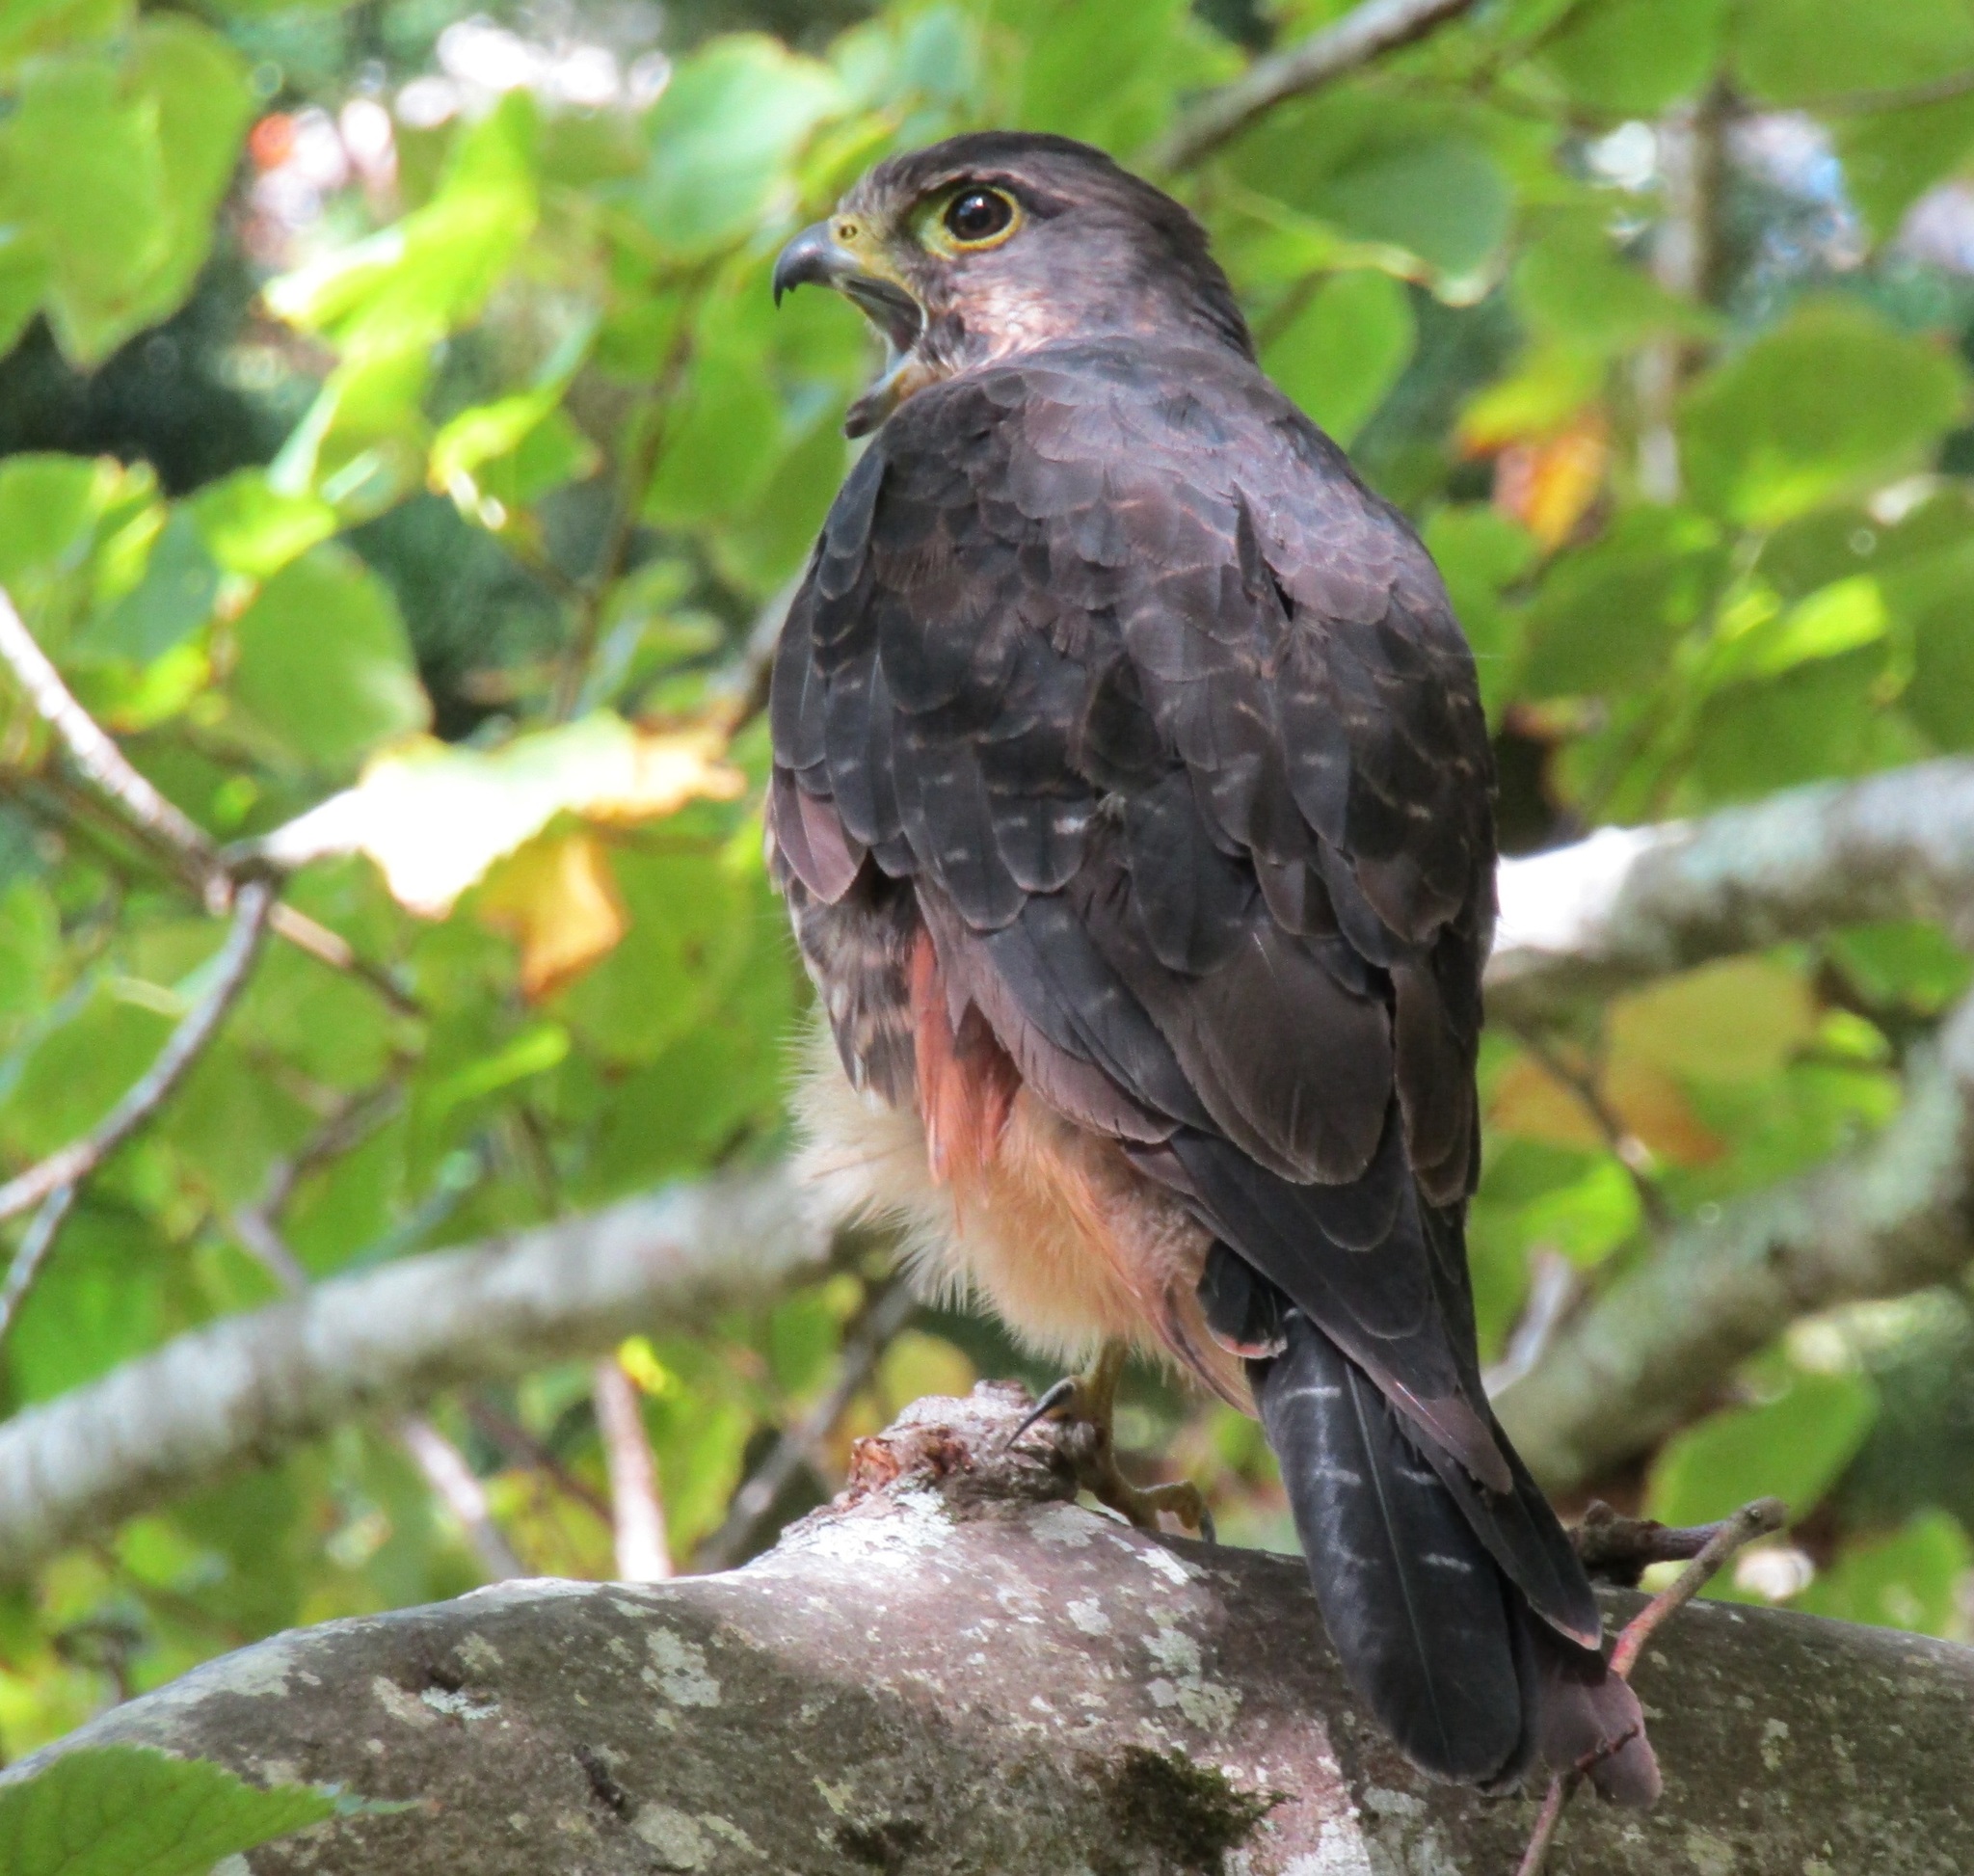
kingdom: Animalia
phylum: Chordata
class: Aves
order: Falconiformes
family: Falconidae
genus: Falco
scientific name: Falco novaeseelandiae
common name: New zealand falcon
